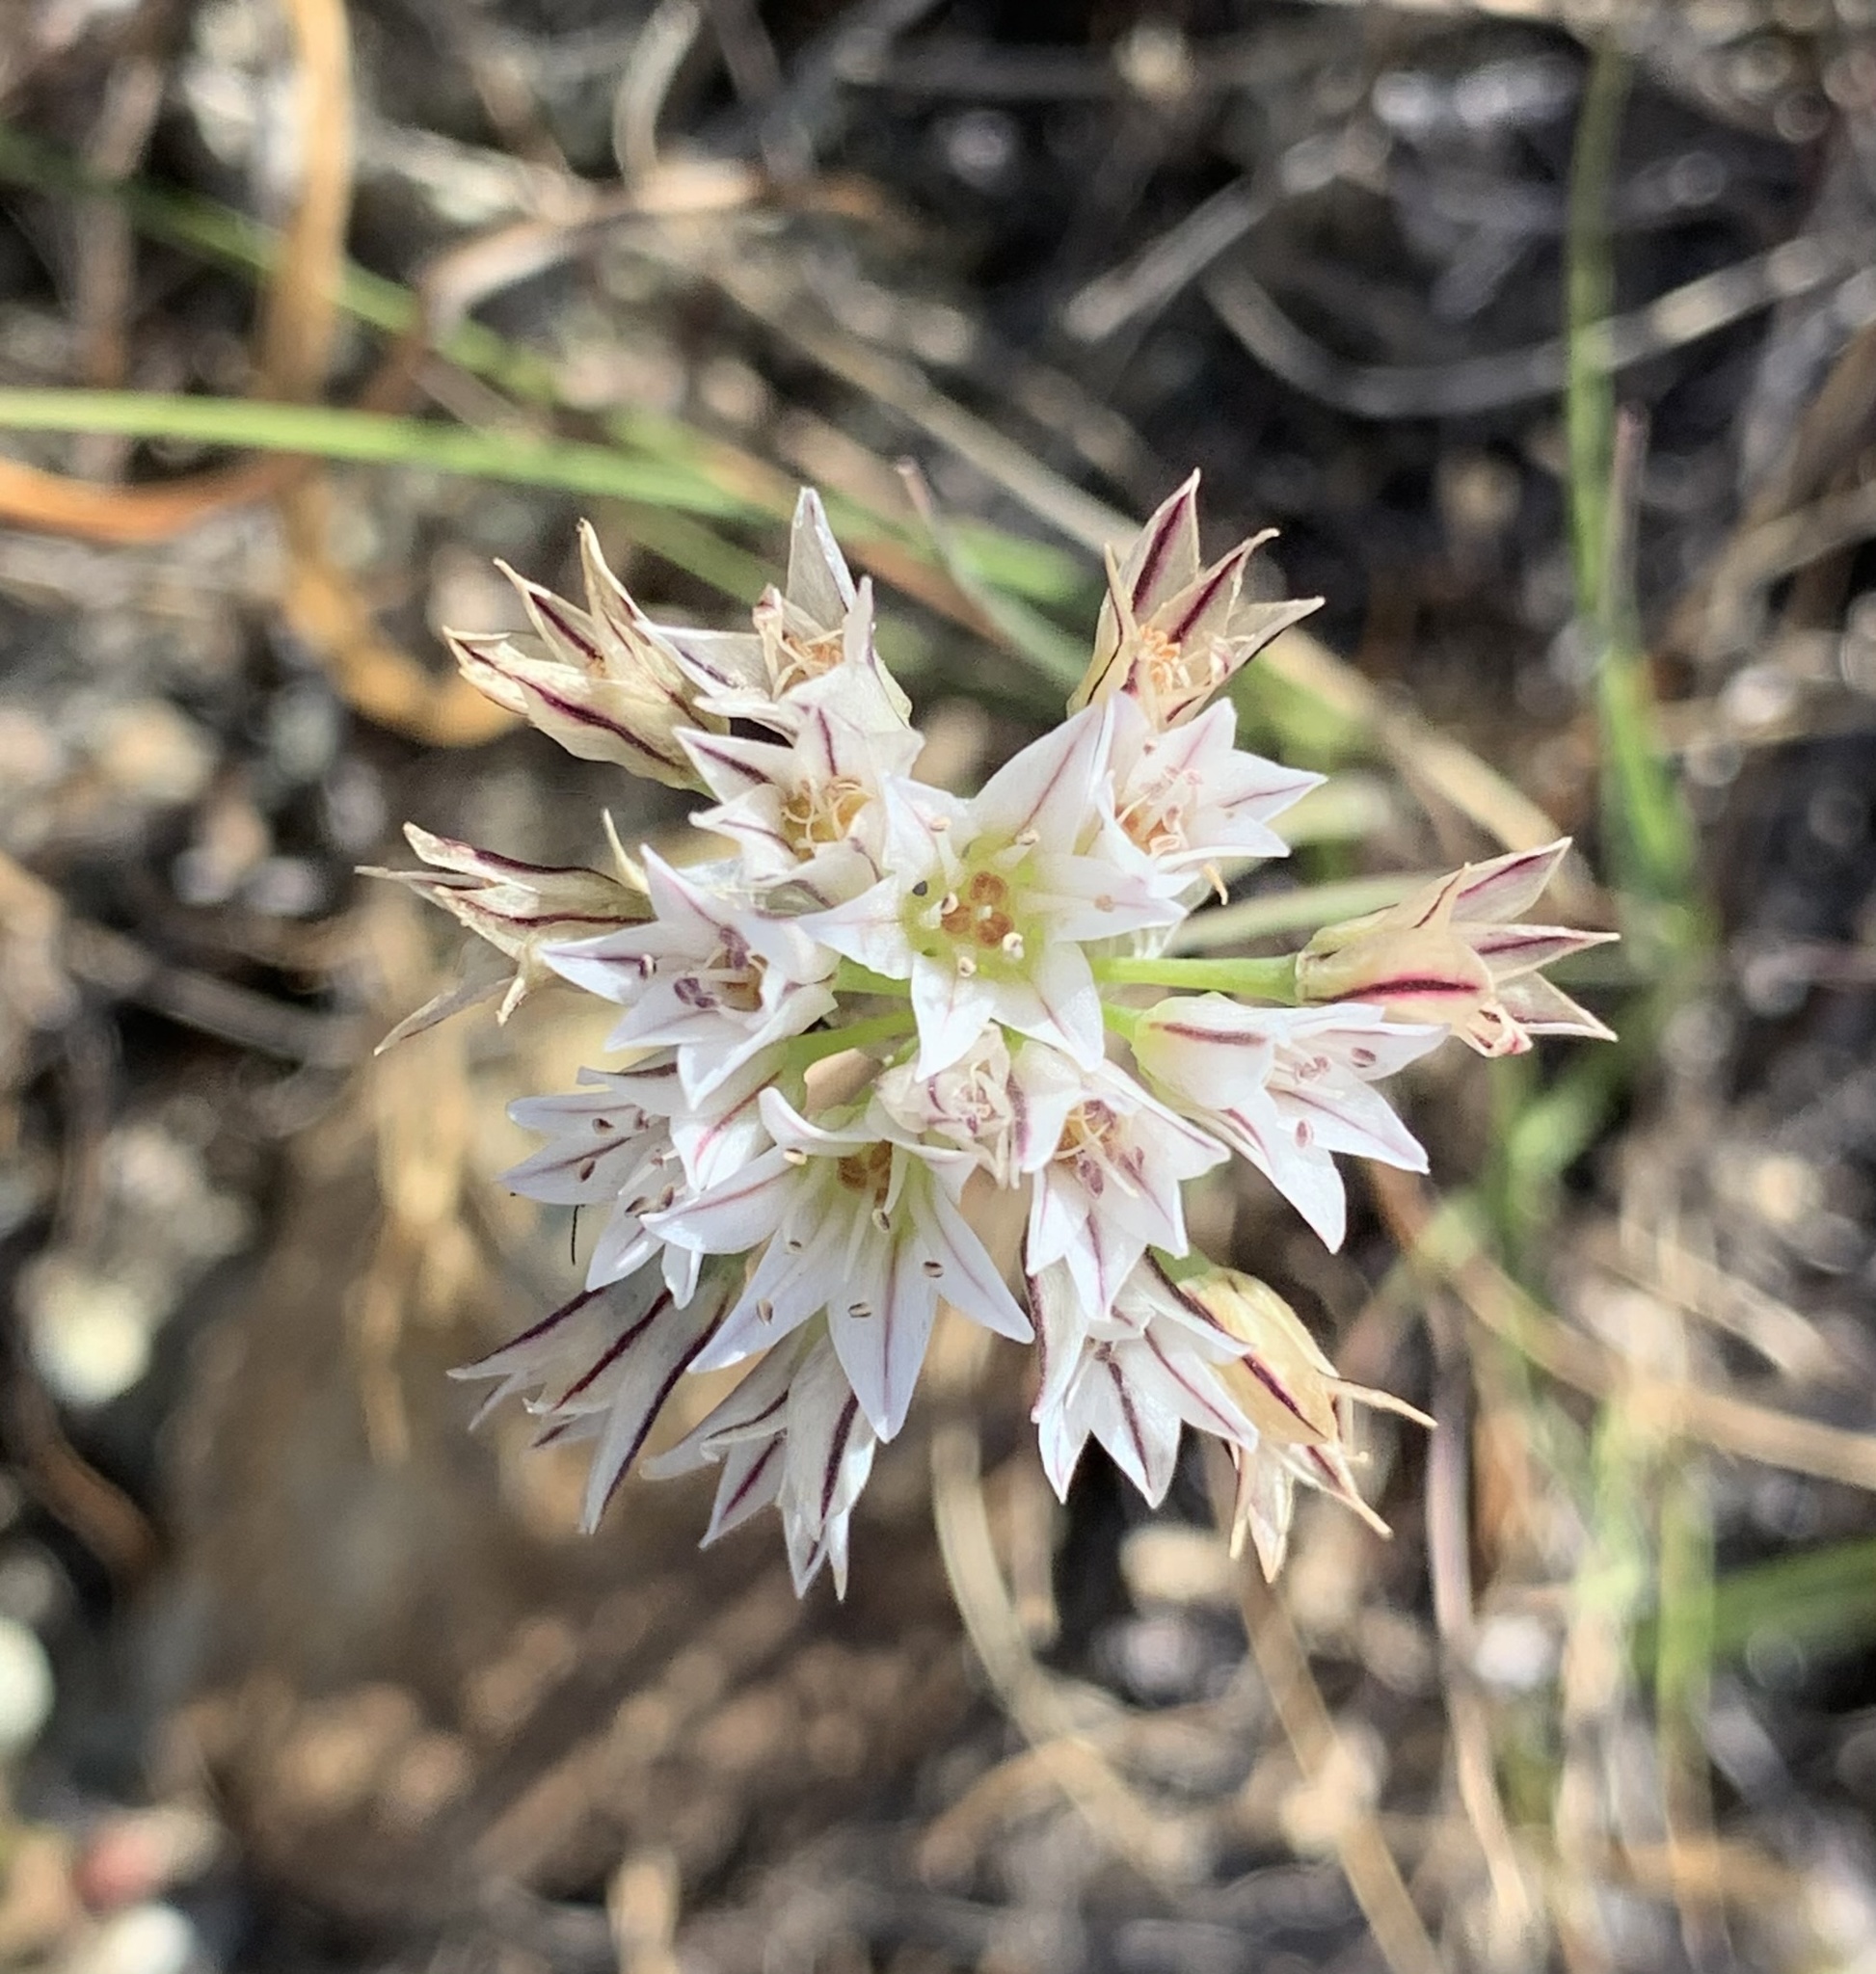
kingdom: Plantae
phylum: Tracheophyta
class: Liliopsida
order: Asparagales
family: Amaryllidaceae
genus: Allium
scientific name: Allium lacunosum
